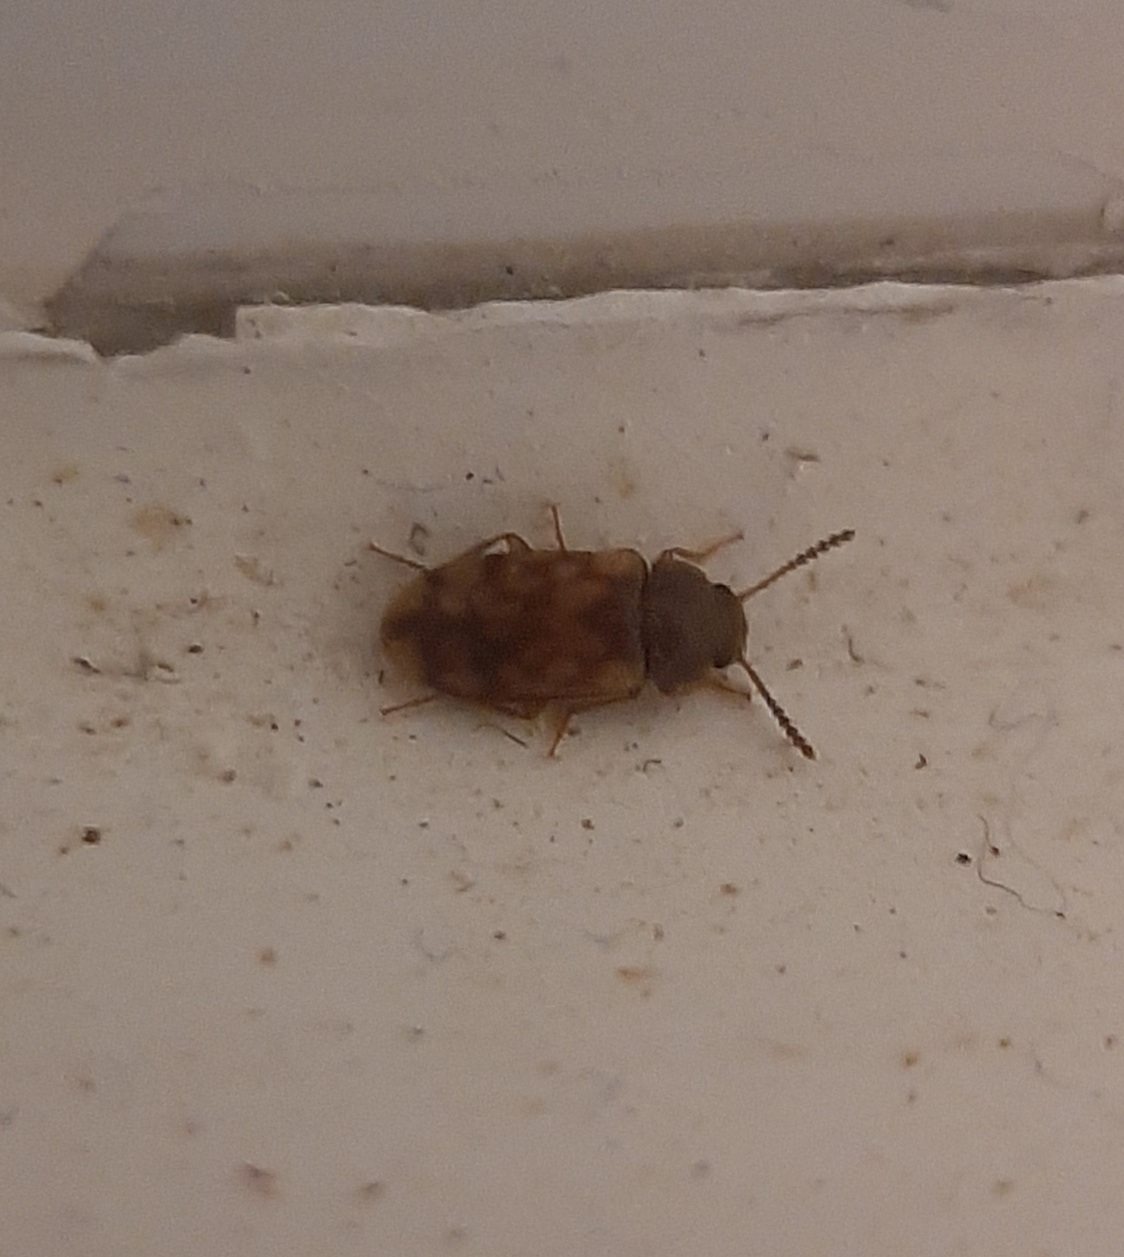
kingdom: Animalia
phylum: Arthropoda
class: Insecta
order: Coleoptera
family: Mycetophagidae
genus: Mycetophagus
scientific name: Mycetophagus pluripunctatus
